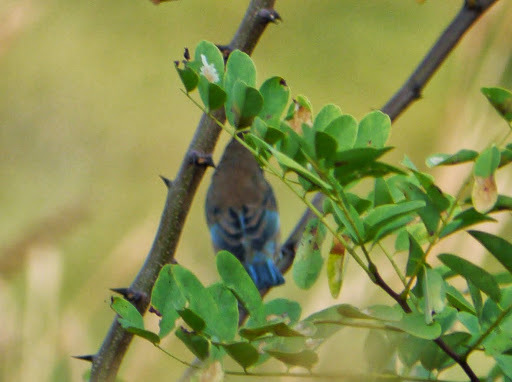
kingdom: Animalia
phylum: Chordata
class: Aves
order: Passeriformes
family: Cardinalidae
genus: Passerina
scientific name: Passerina cyanea
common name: Indigo bunting
